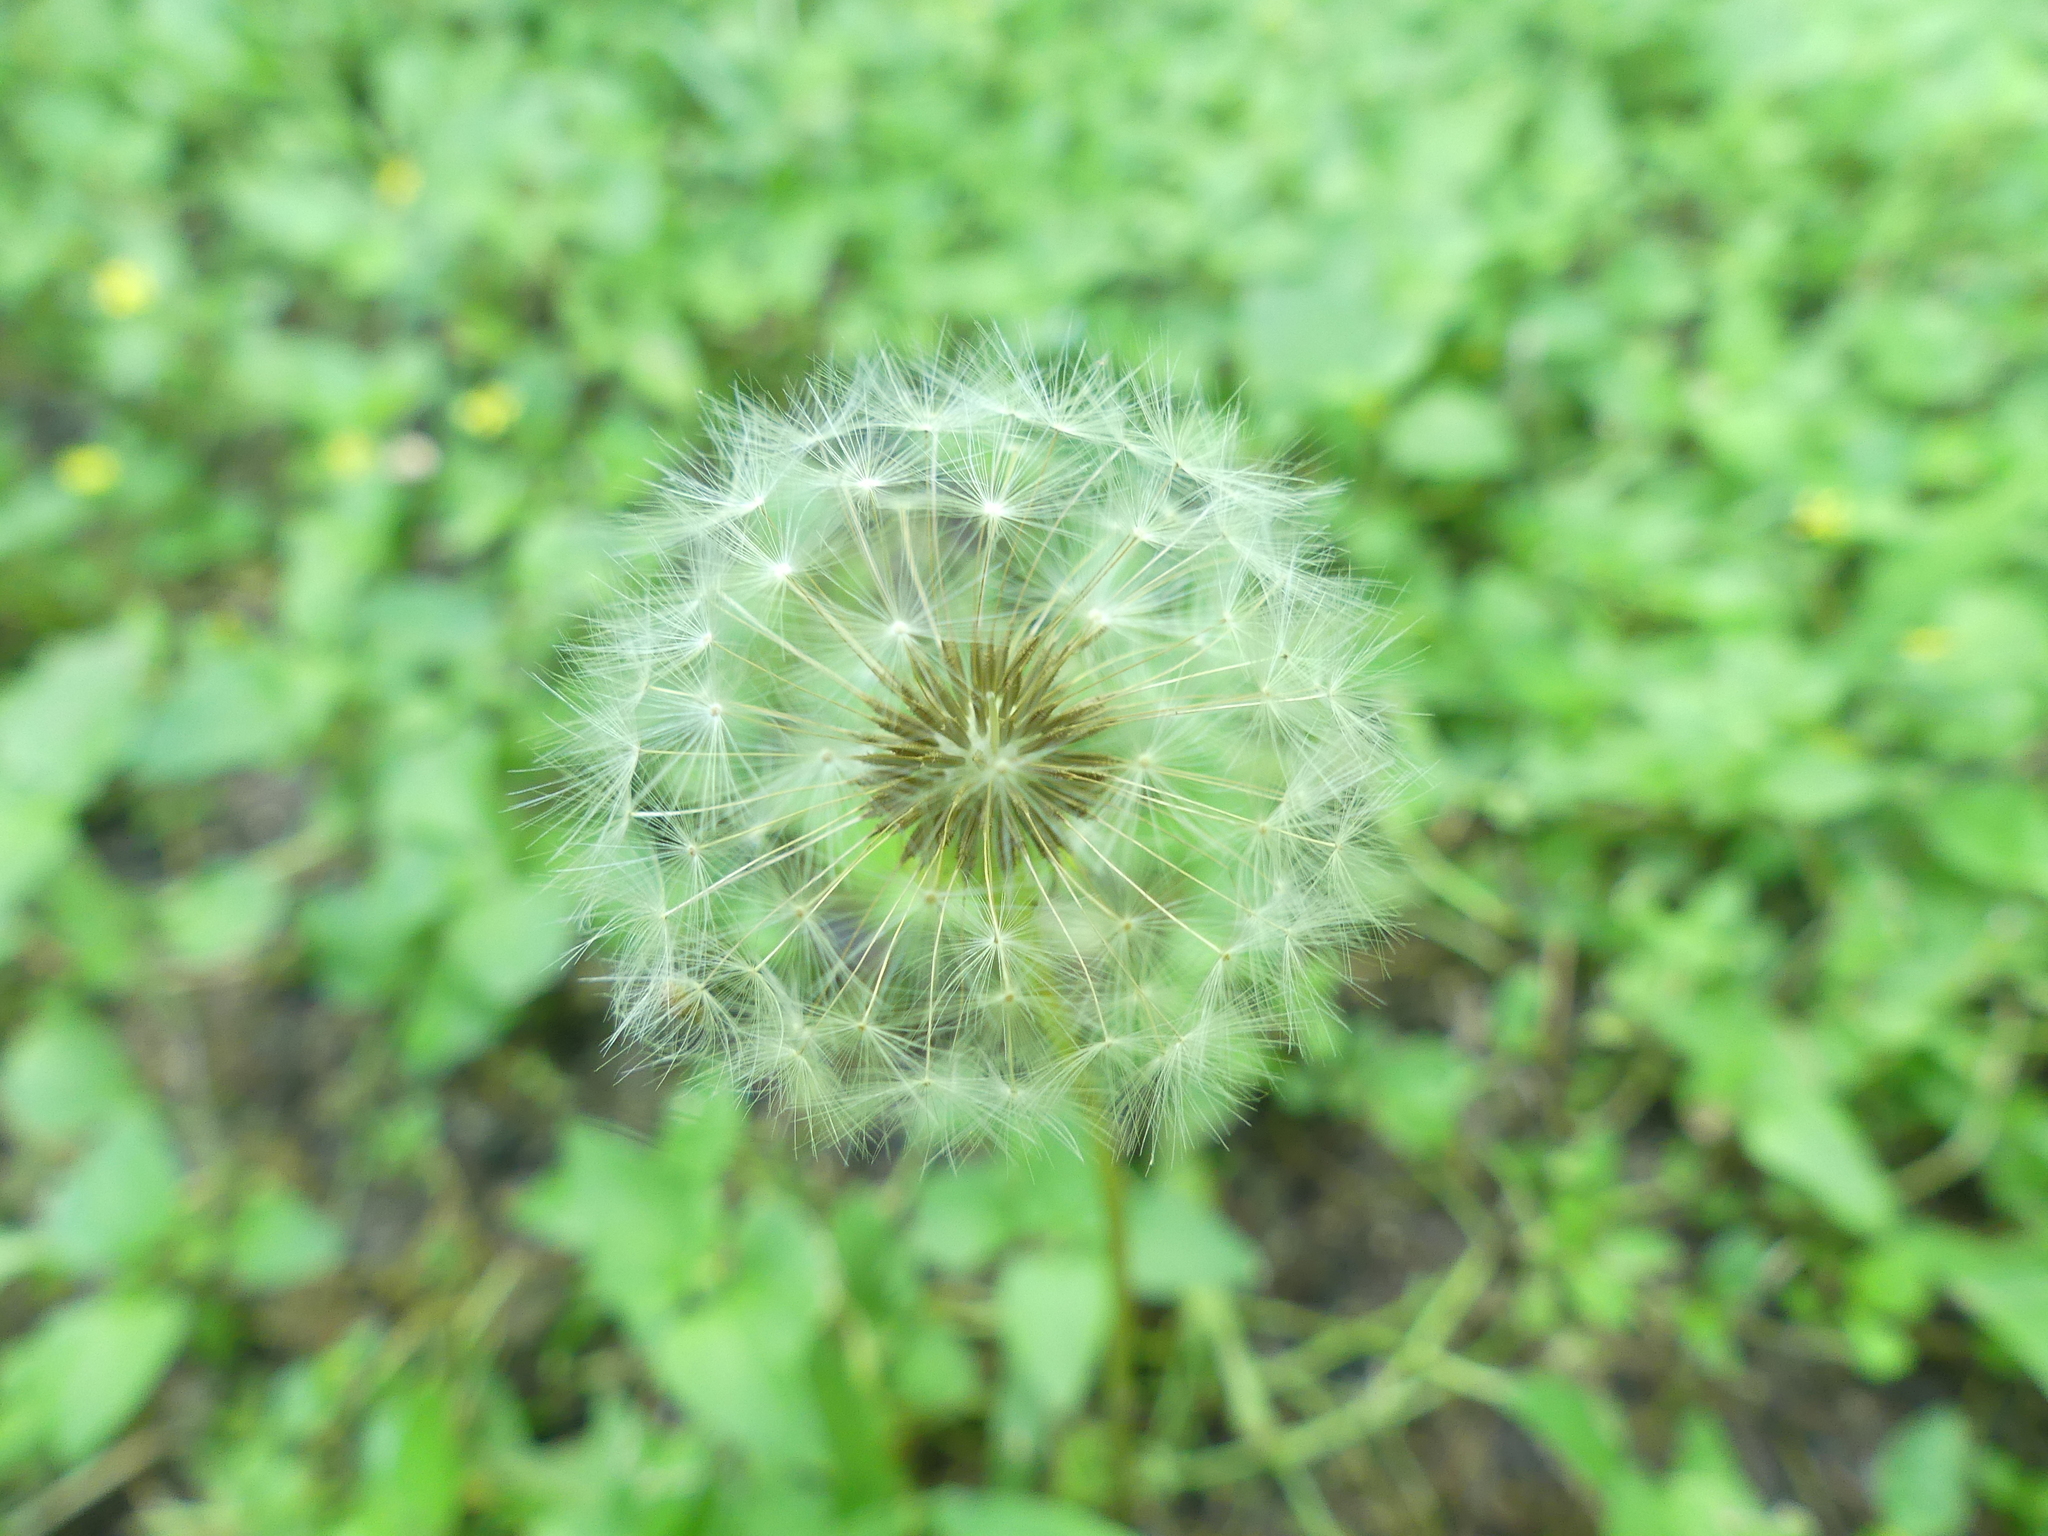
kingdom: Plantae
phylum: Tracheophyta
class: Magnoliopsida
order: Asterales
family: Asteraceae
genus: Taraxacum
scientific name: Taraxacum officinale
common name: Common dandelion
